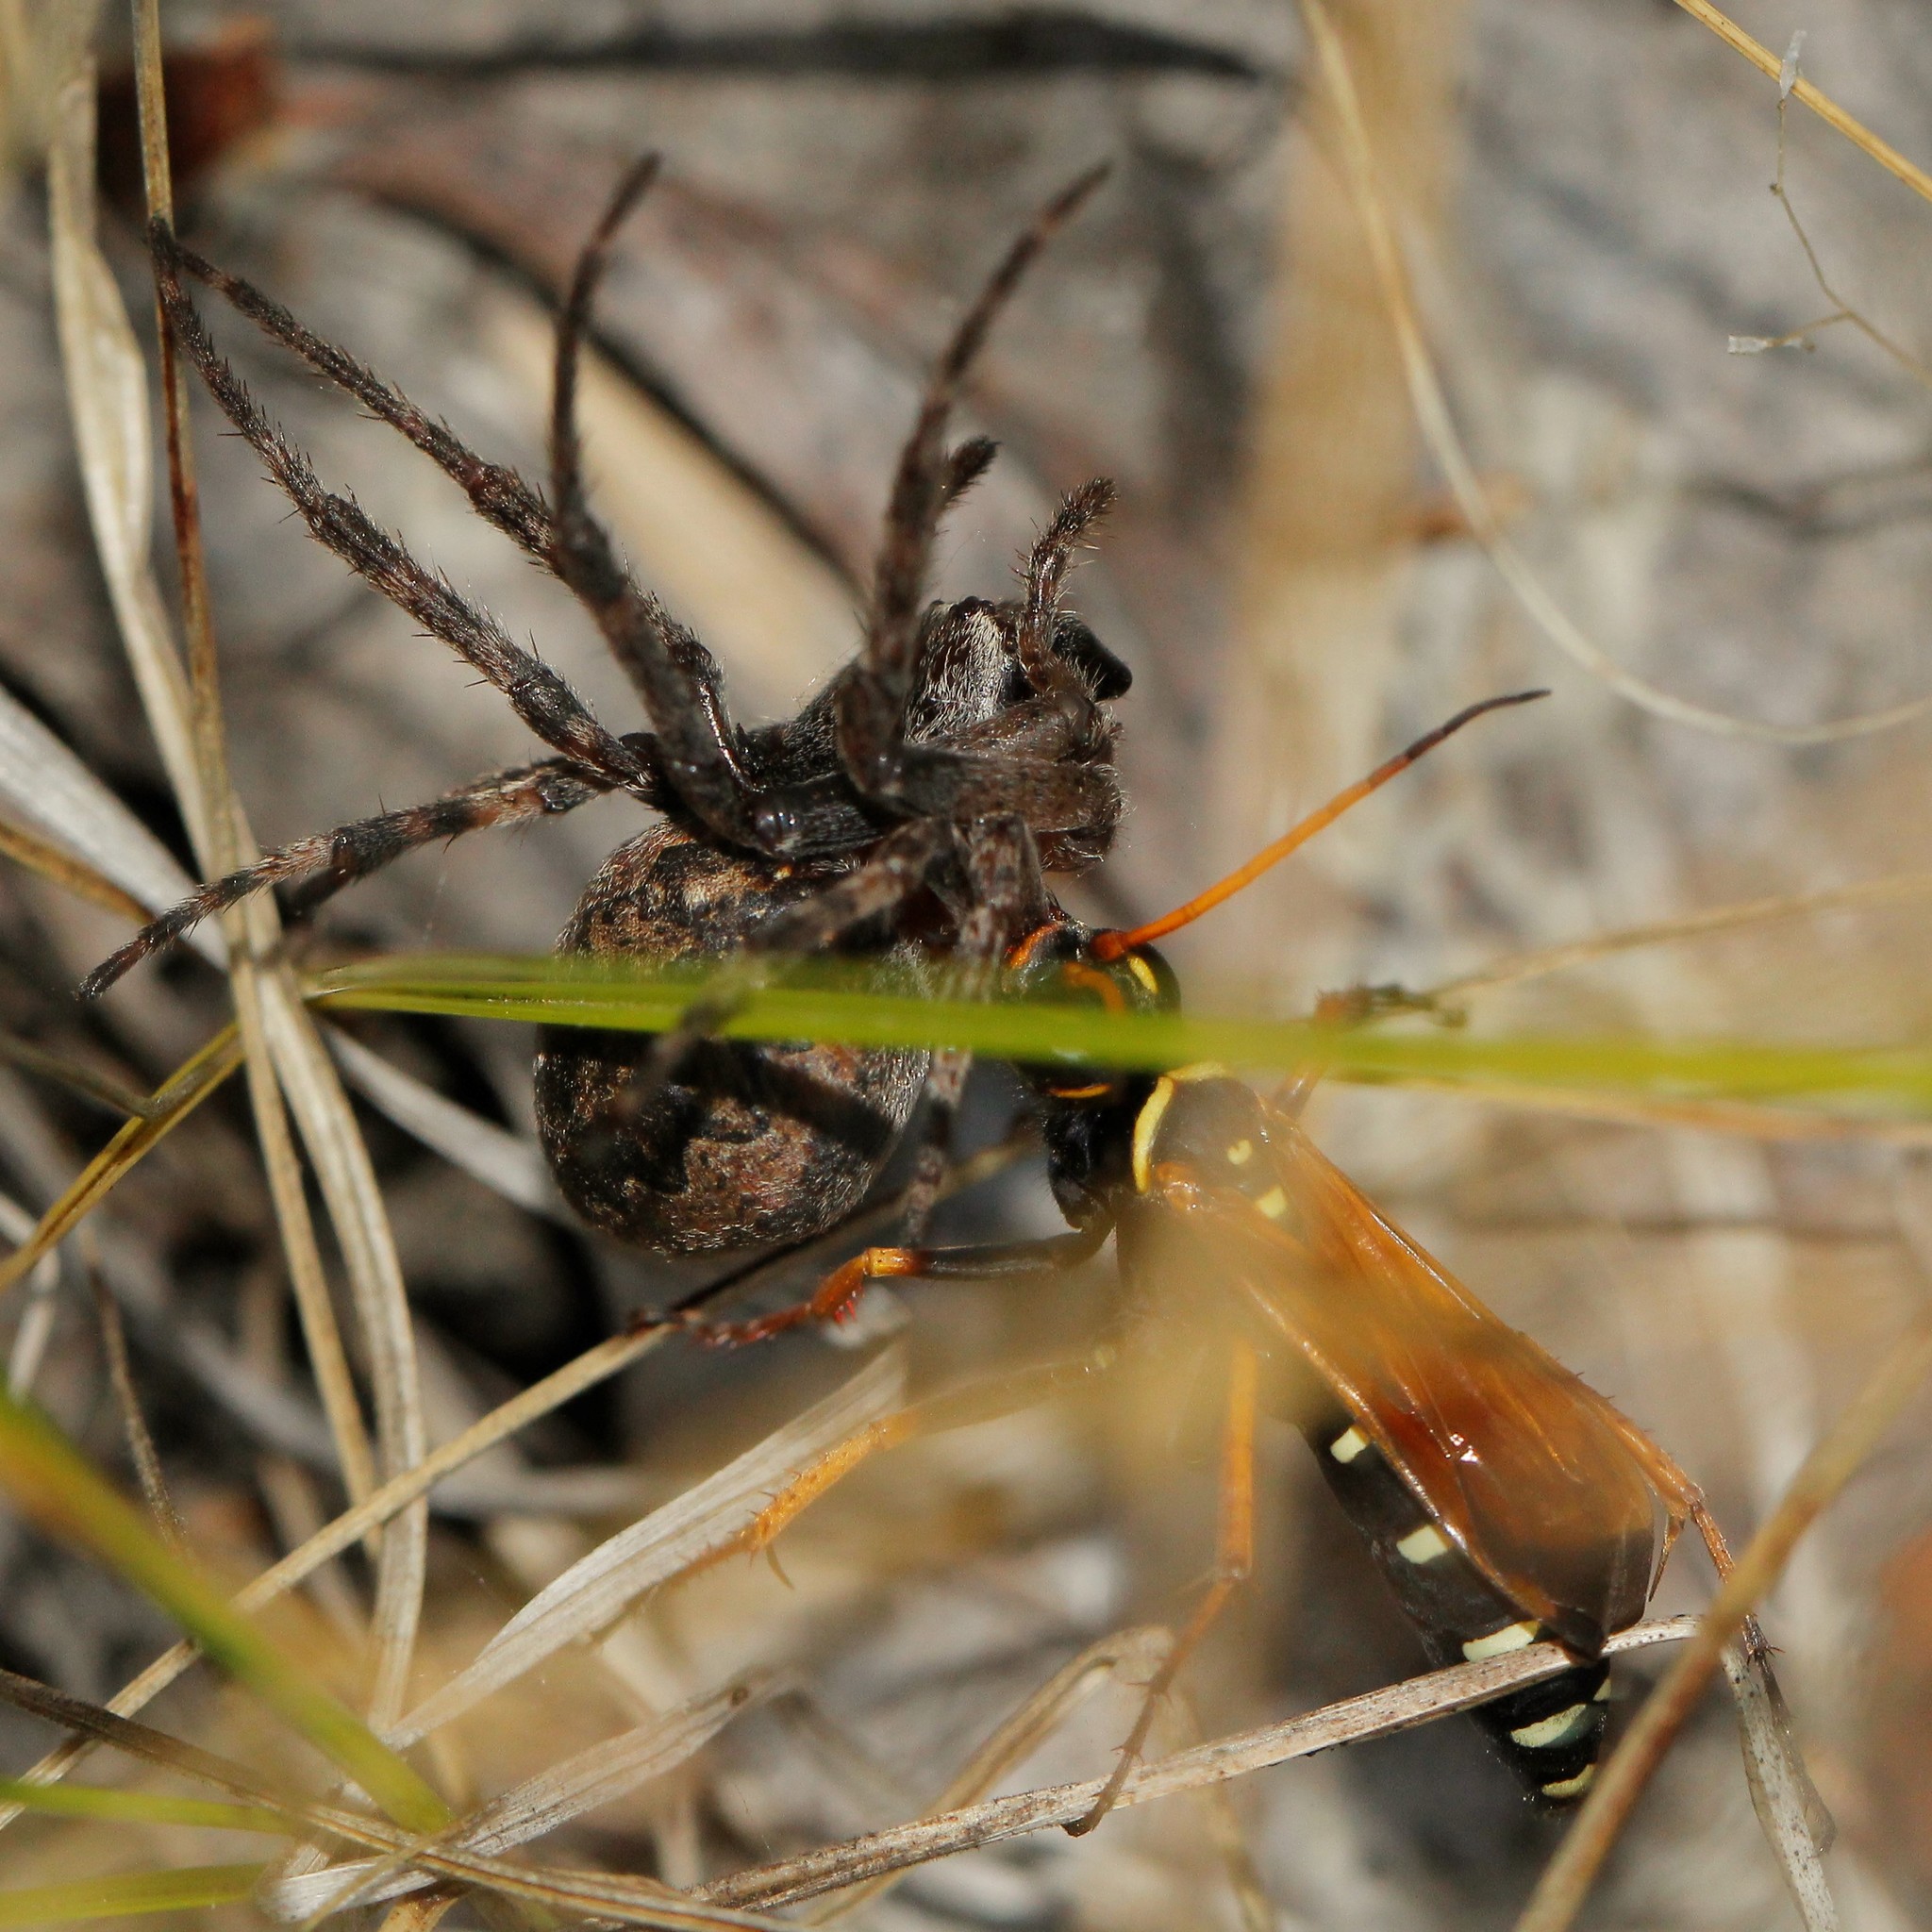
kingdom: Animalia
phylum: Arthropoda
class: Insecta
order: Hymenoptera
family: Pompilidae
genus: Parabatozonus
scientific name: Parabatozonus lacerticida
